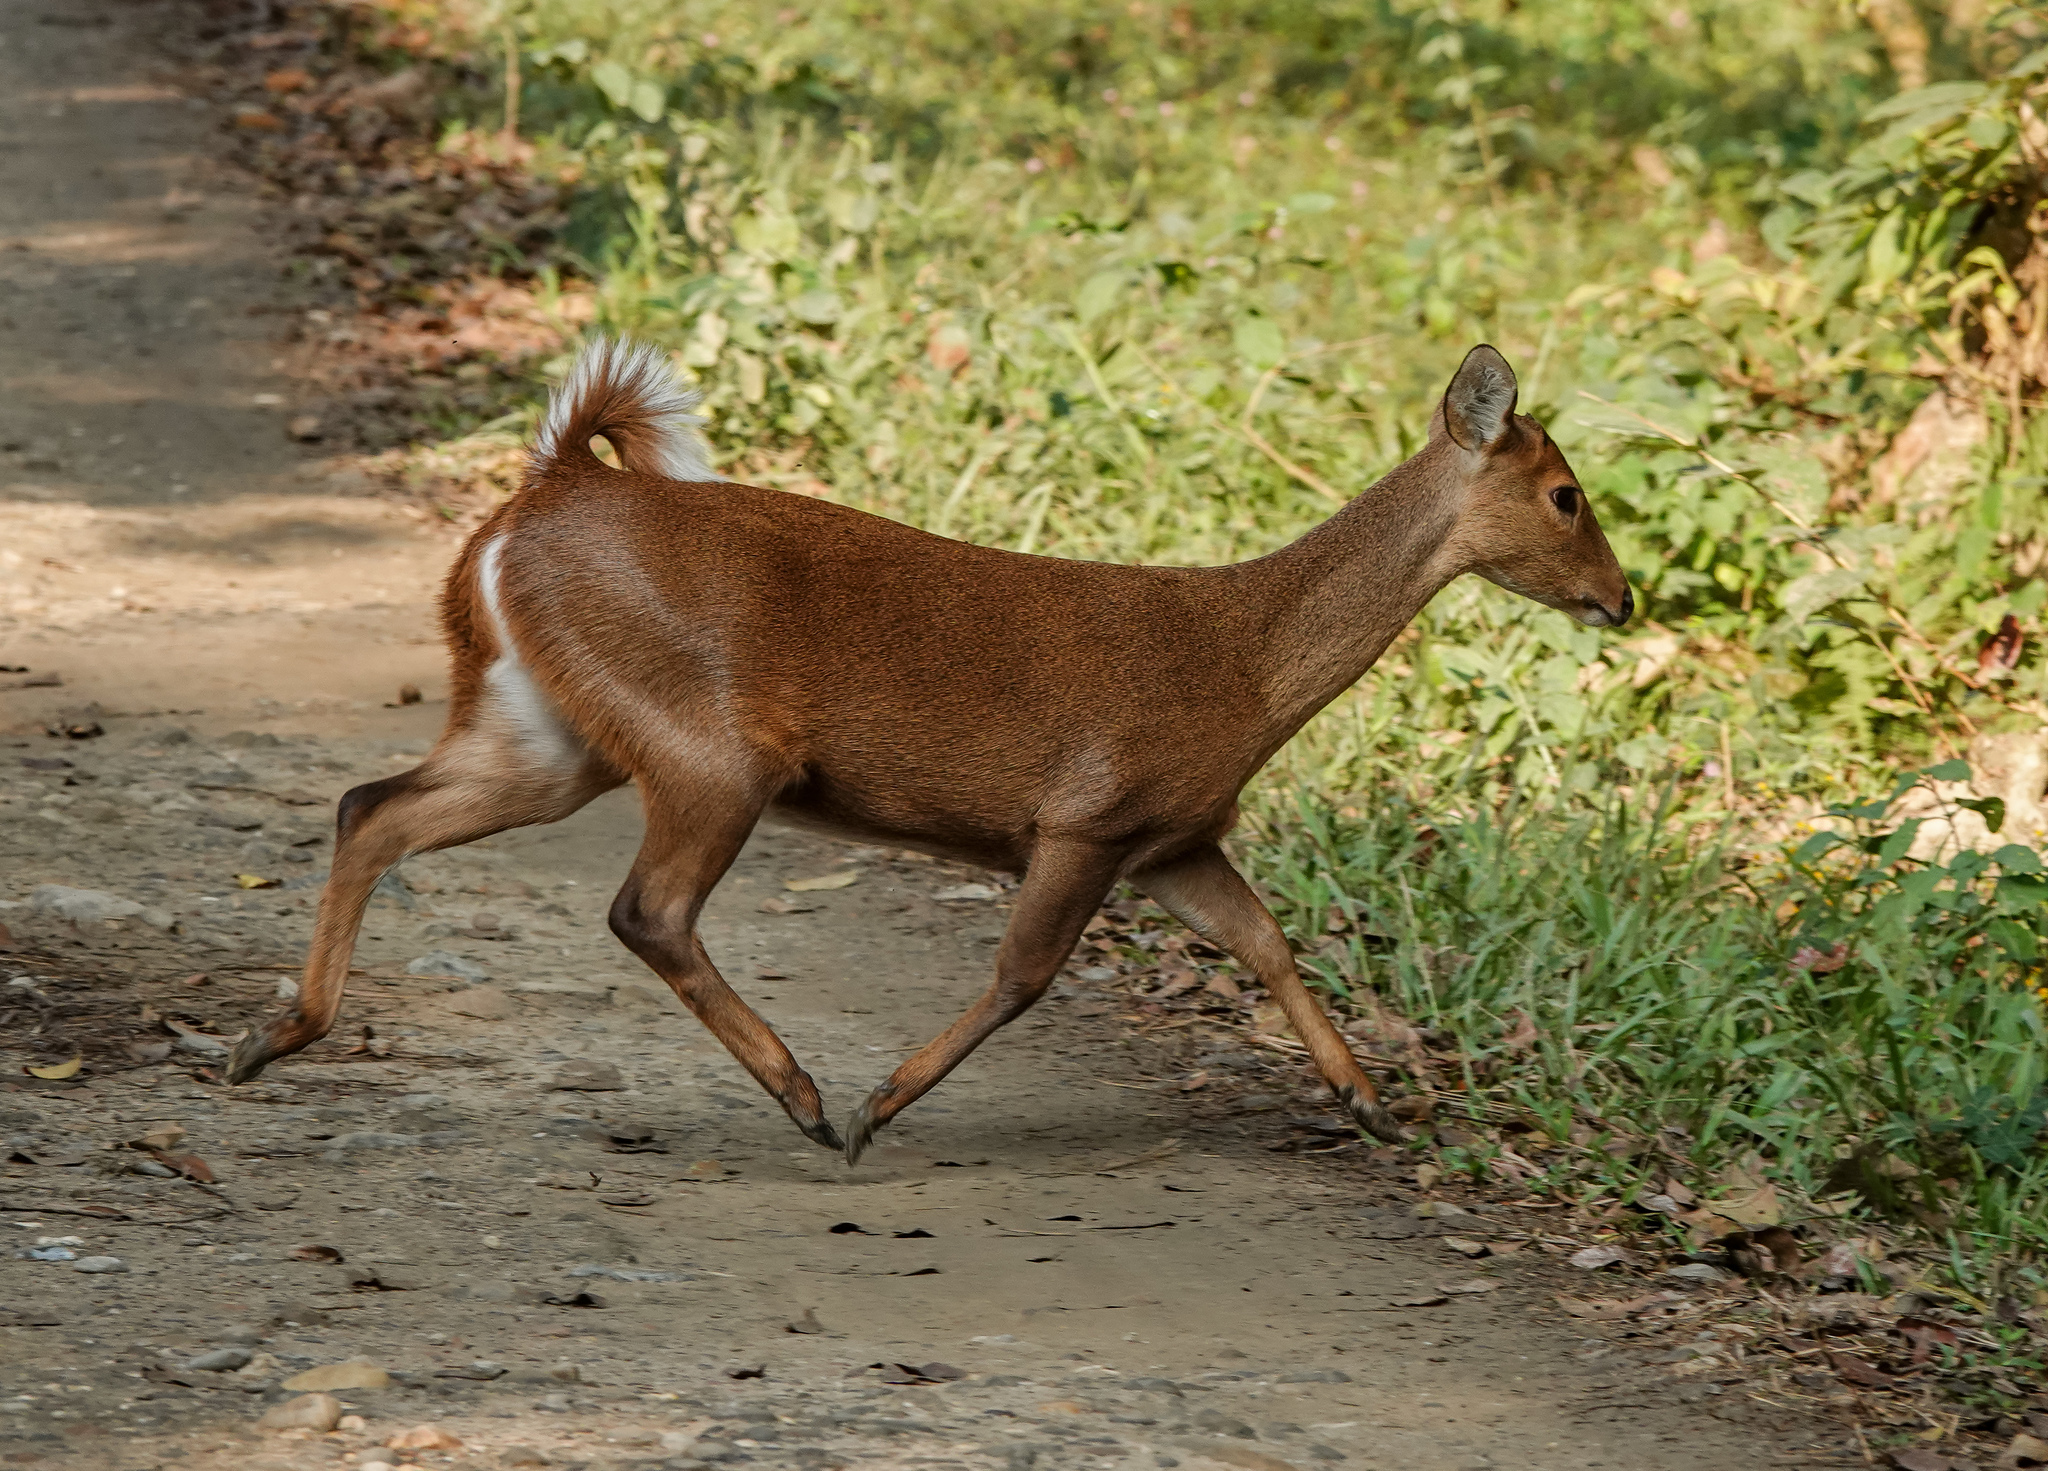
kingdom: Animalia
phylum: Chordata
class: Mammalia
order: Artiodactyla
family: Cervidae
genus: Muntiacus
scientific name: Muntiacus muntjak
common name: Indian muntjac
